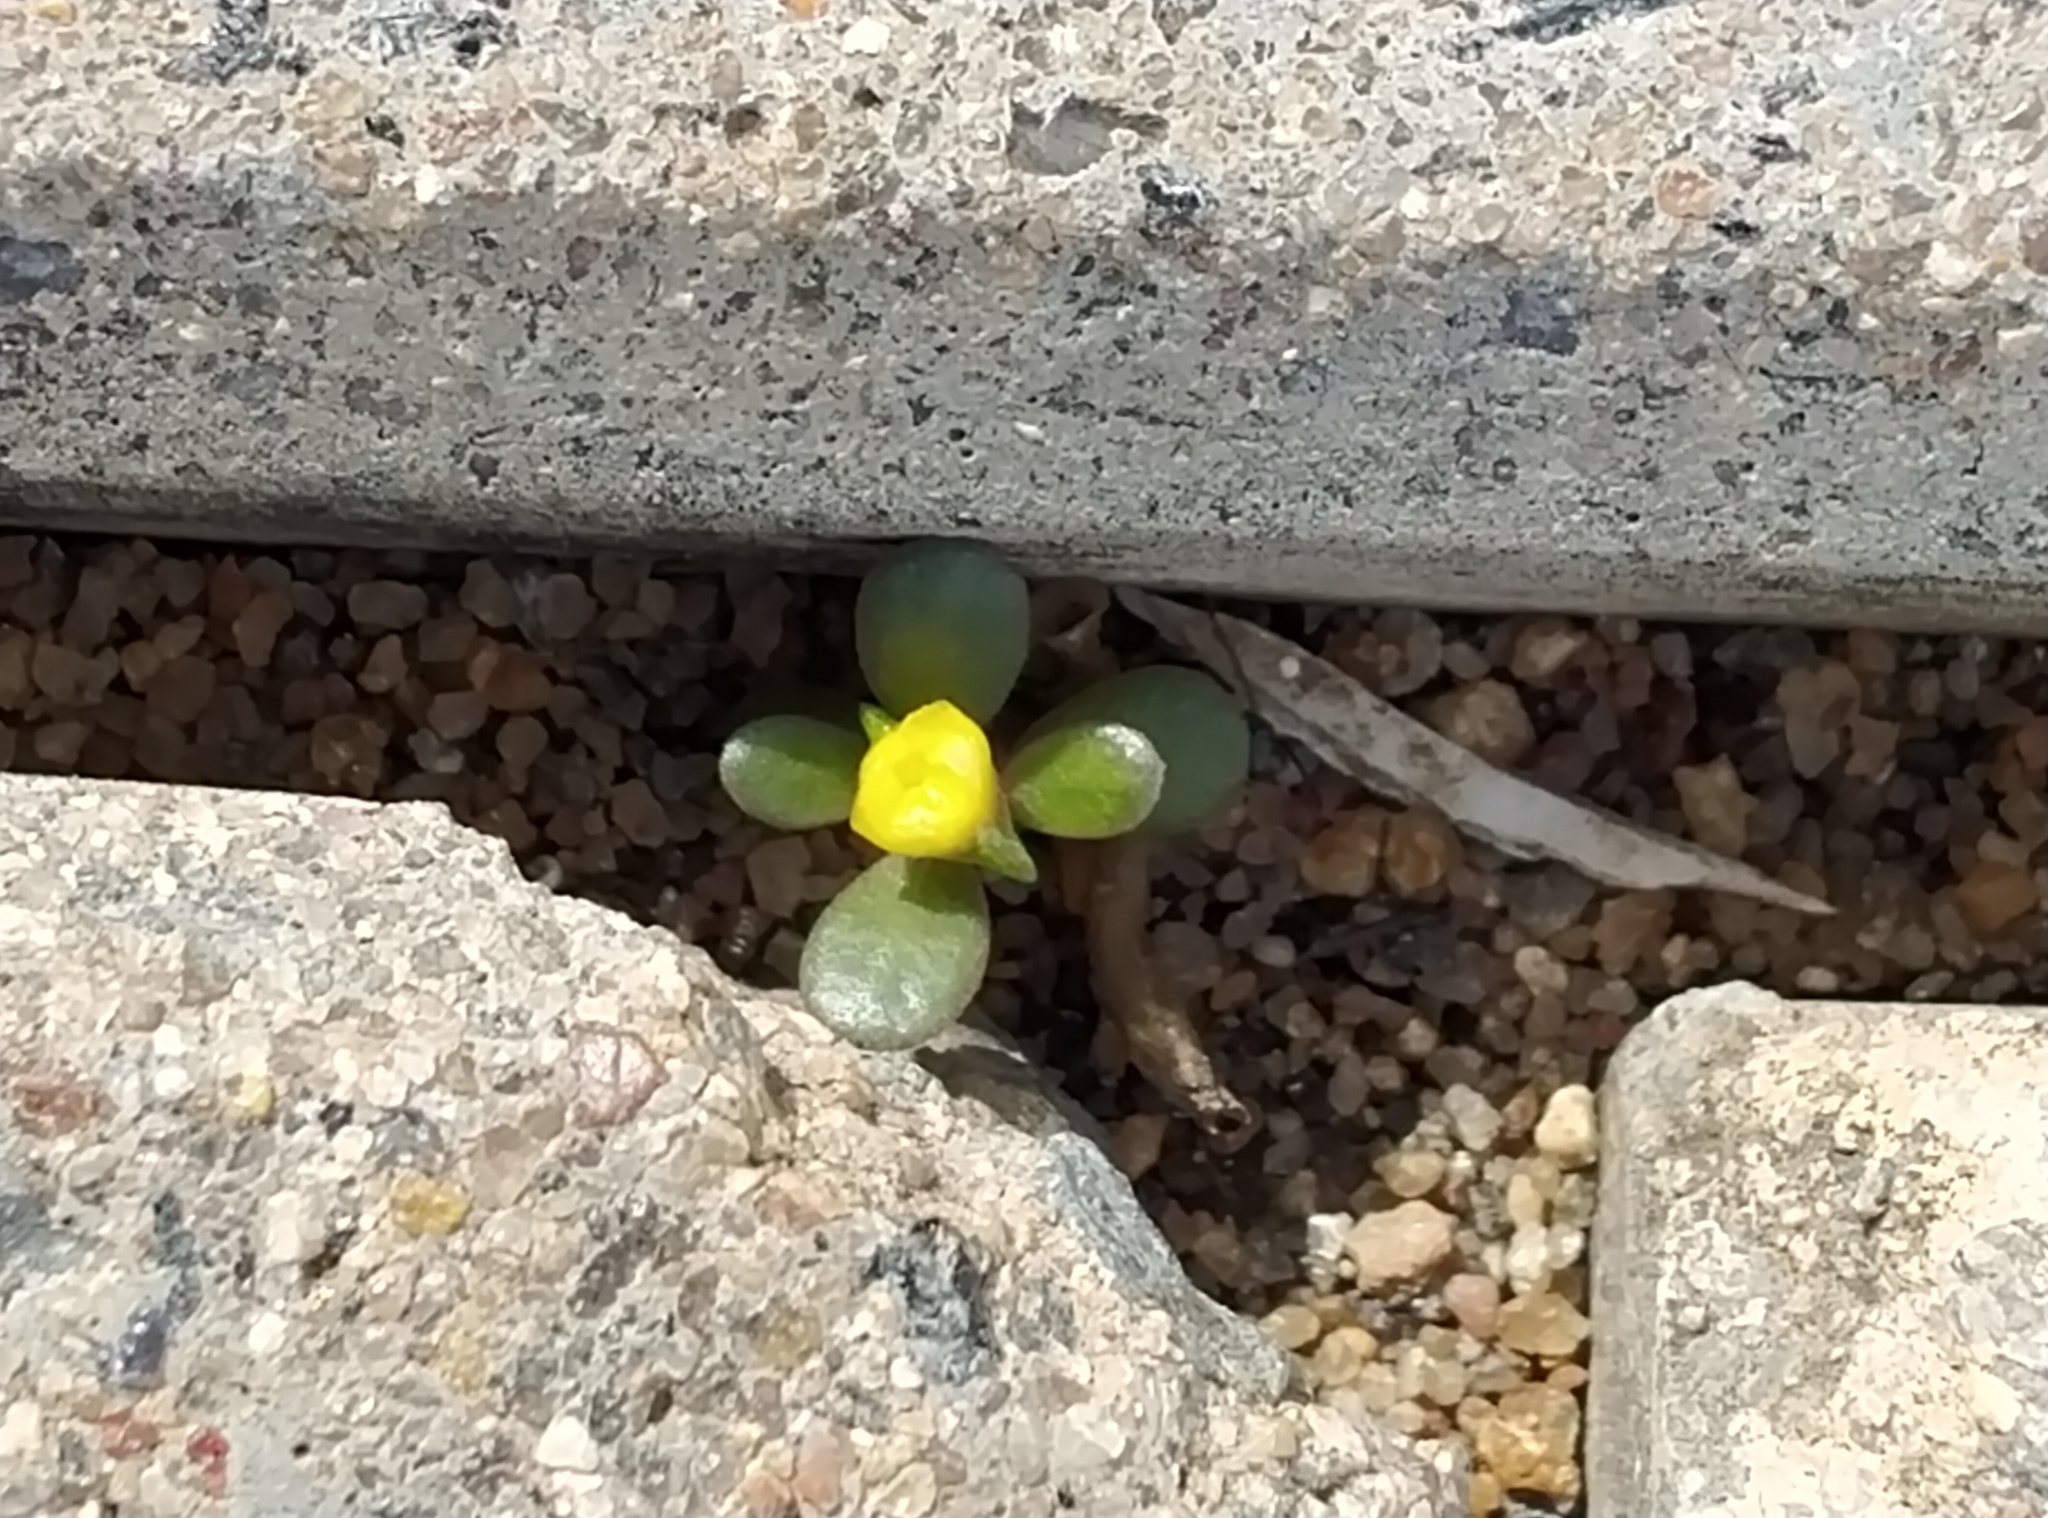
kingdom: Plantae
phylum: Tracheophyta
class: Magnoliopsida
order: Caryophyllales
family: Portulacaceae
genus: Portulaca
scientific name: Portulaca oleracea
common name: Common purslane
